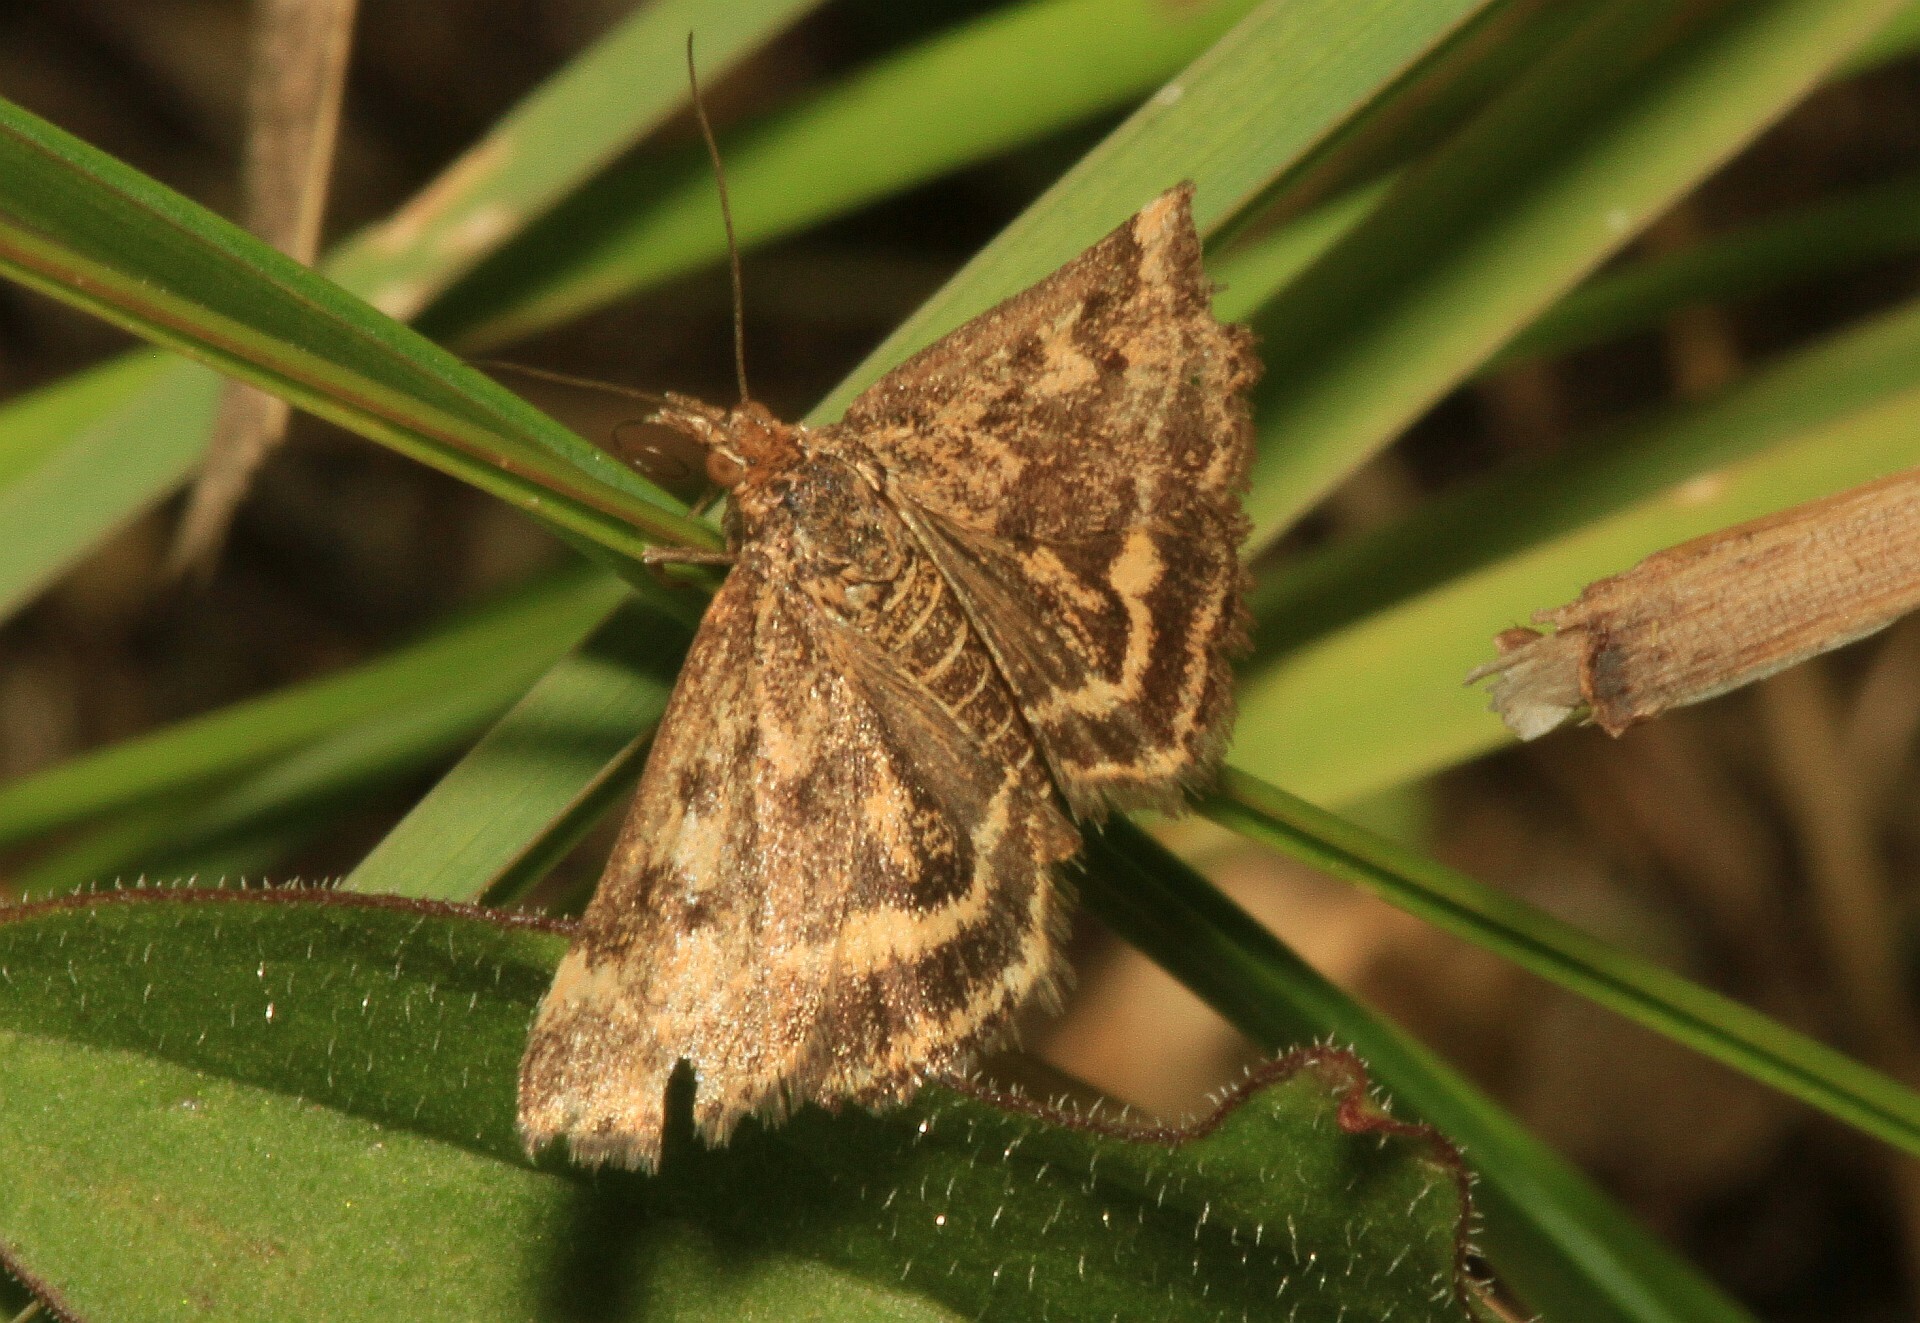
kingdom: Animalia
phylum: Arthropoda
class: Insecta
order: Lepidoptera
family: Crambidae
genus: Pyrausta
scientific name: Pyrausta despicata
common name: Straw-barred pearl
